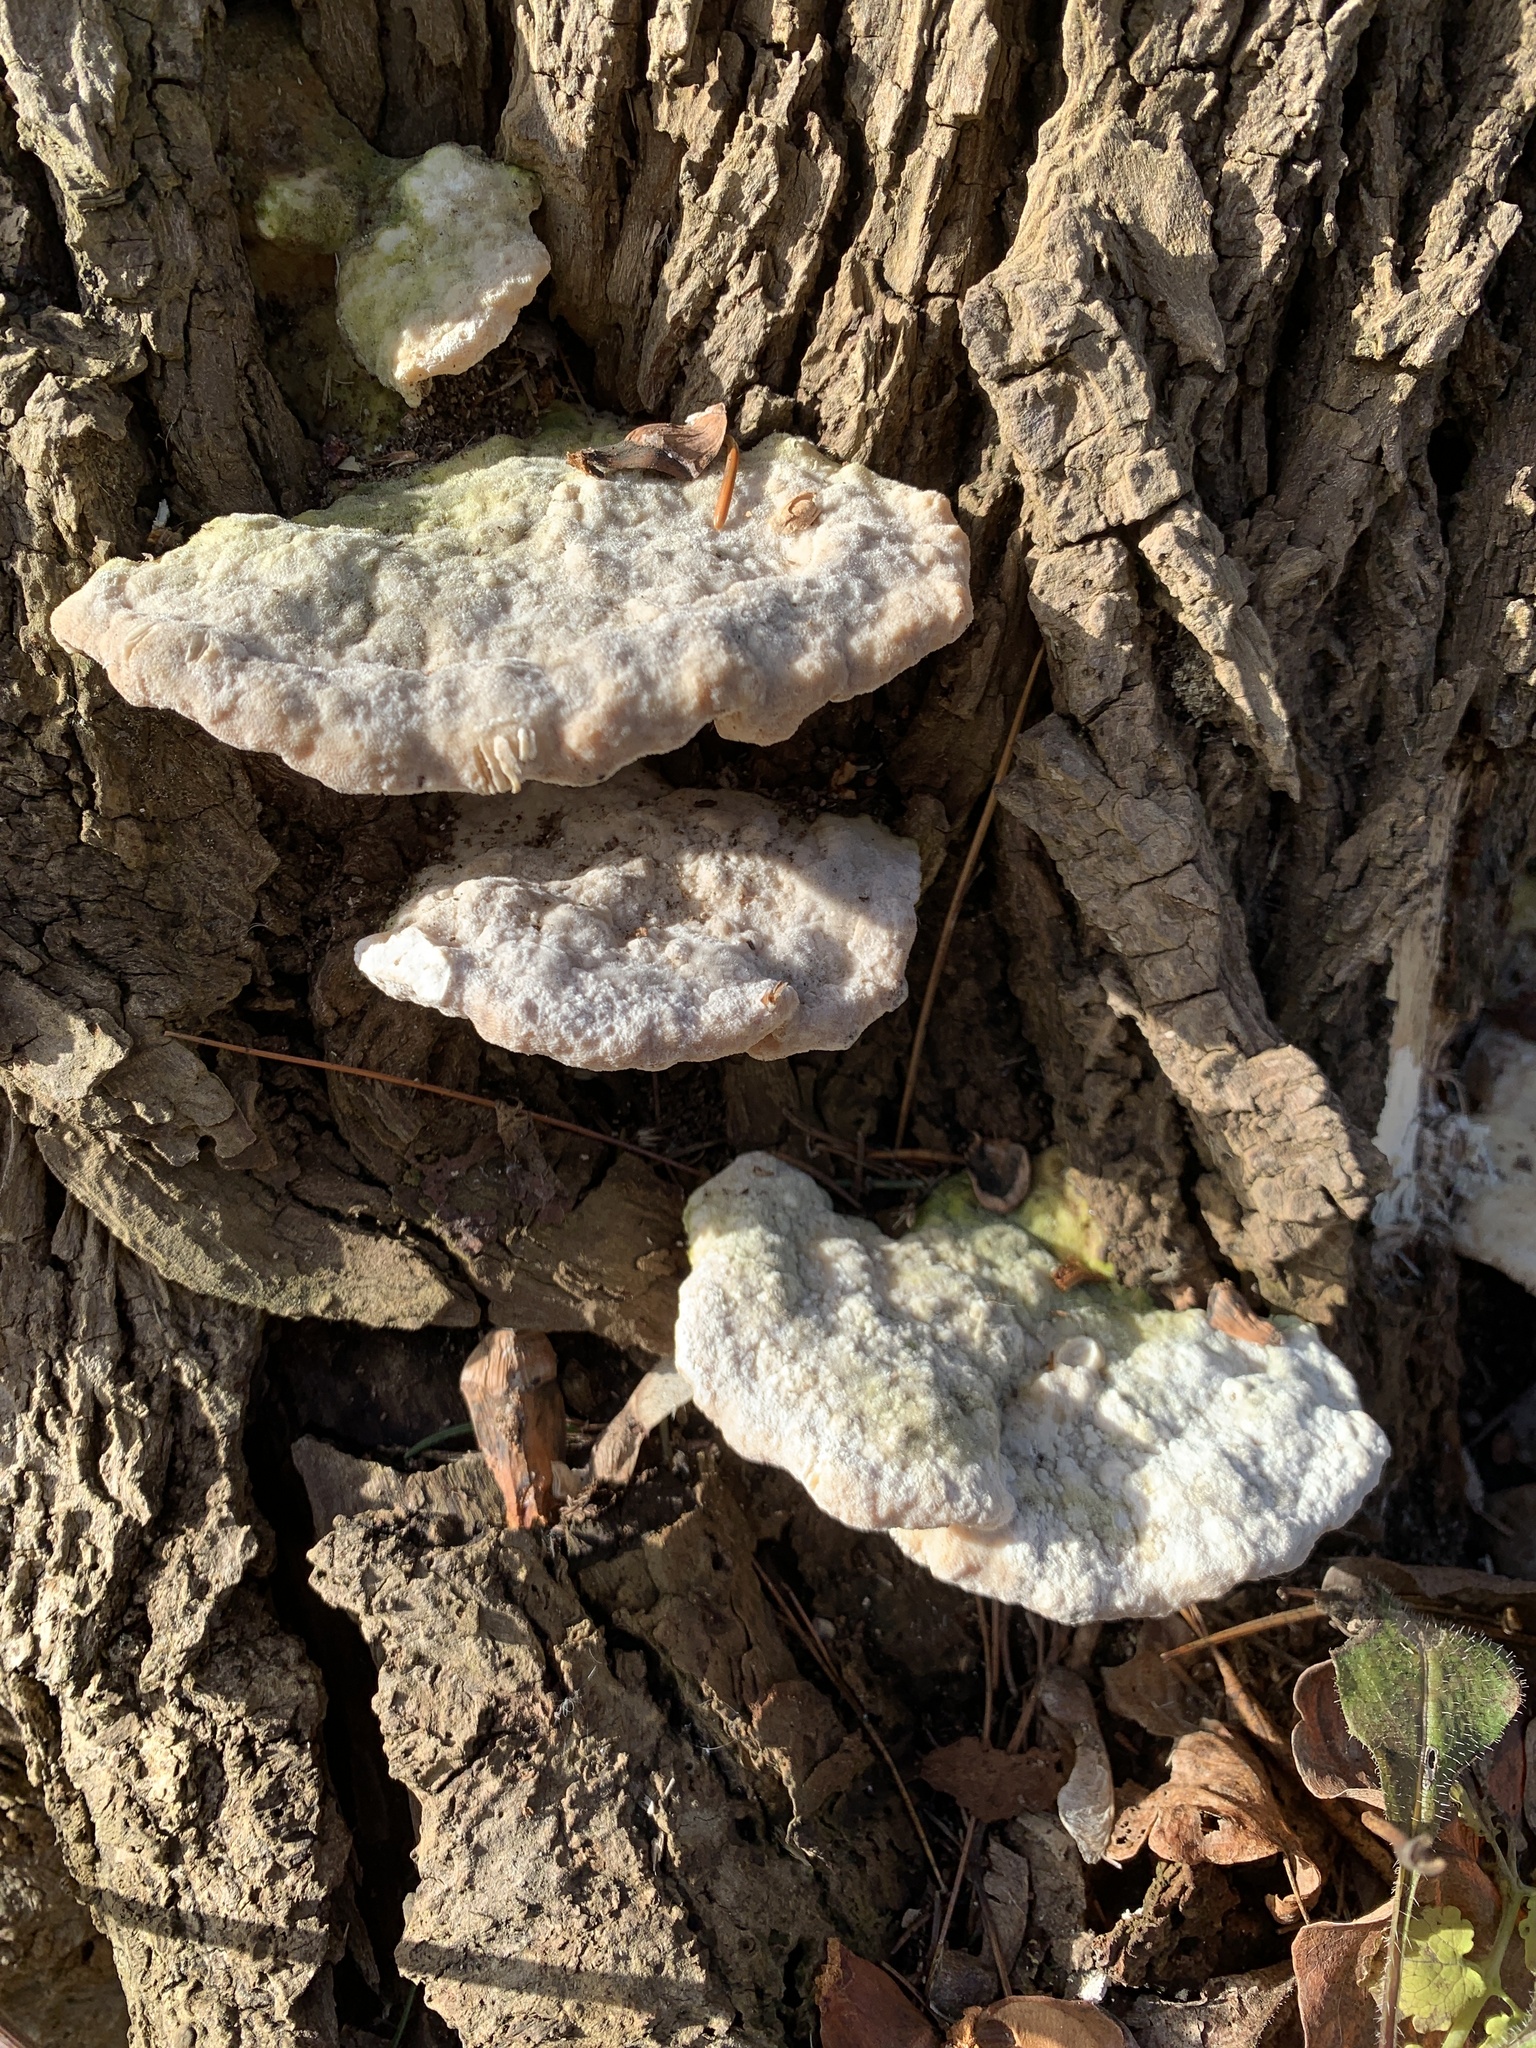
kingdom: Fungi
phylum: Basidiomycota
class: Agaricomycetes
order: Polyporales
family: Polyporaceae
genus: Trametes
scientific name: Trametes gibbosa
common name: Lumpy bracket
